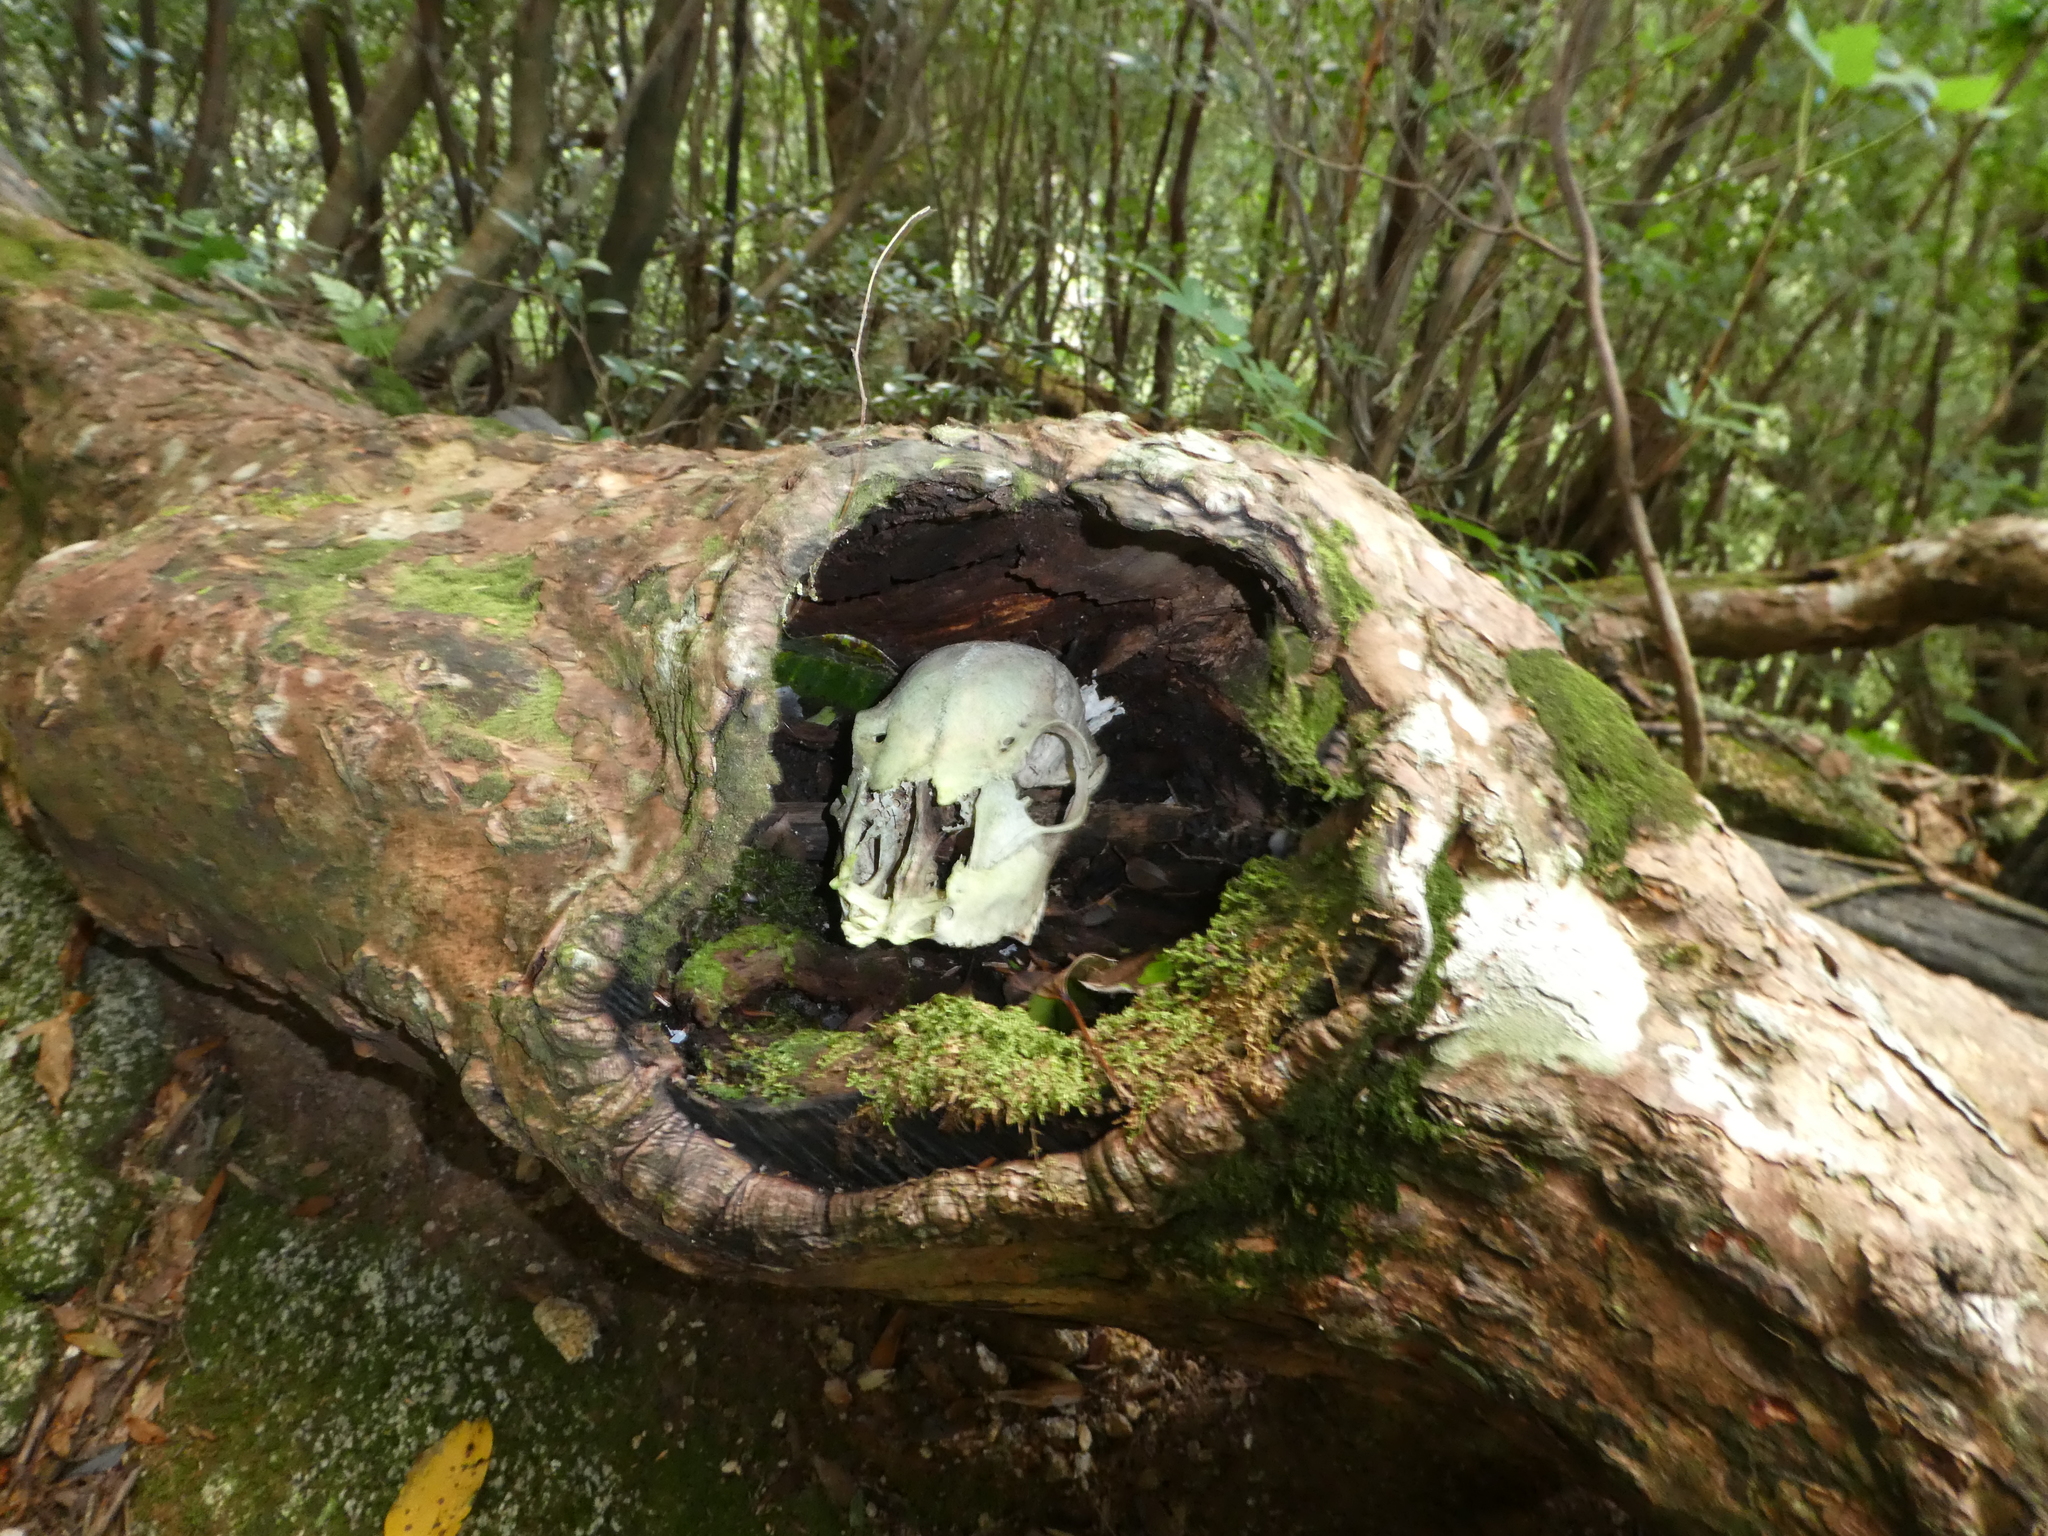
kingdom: Animalia
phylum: Chordata
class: Mammalia
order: Artiodactyla
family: Cervidae
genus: Cervus
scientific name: Cervus nippon
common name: Sika deer
